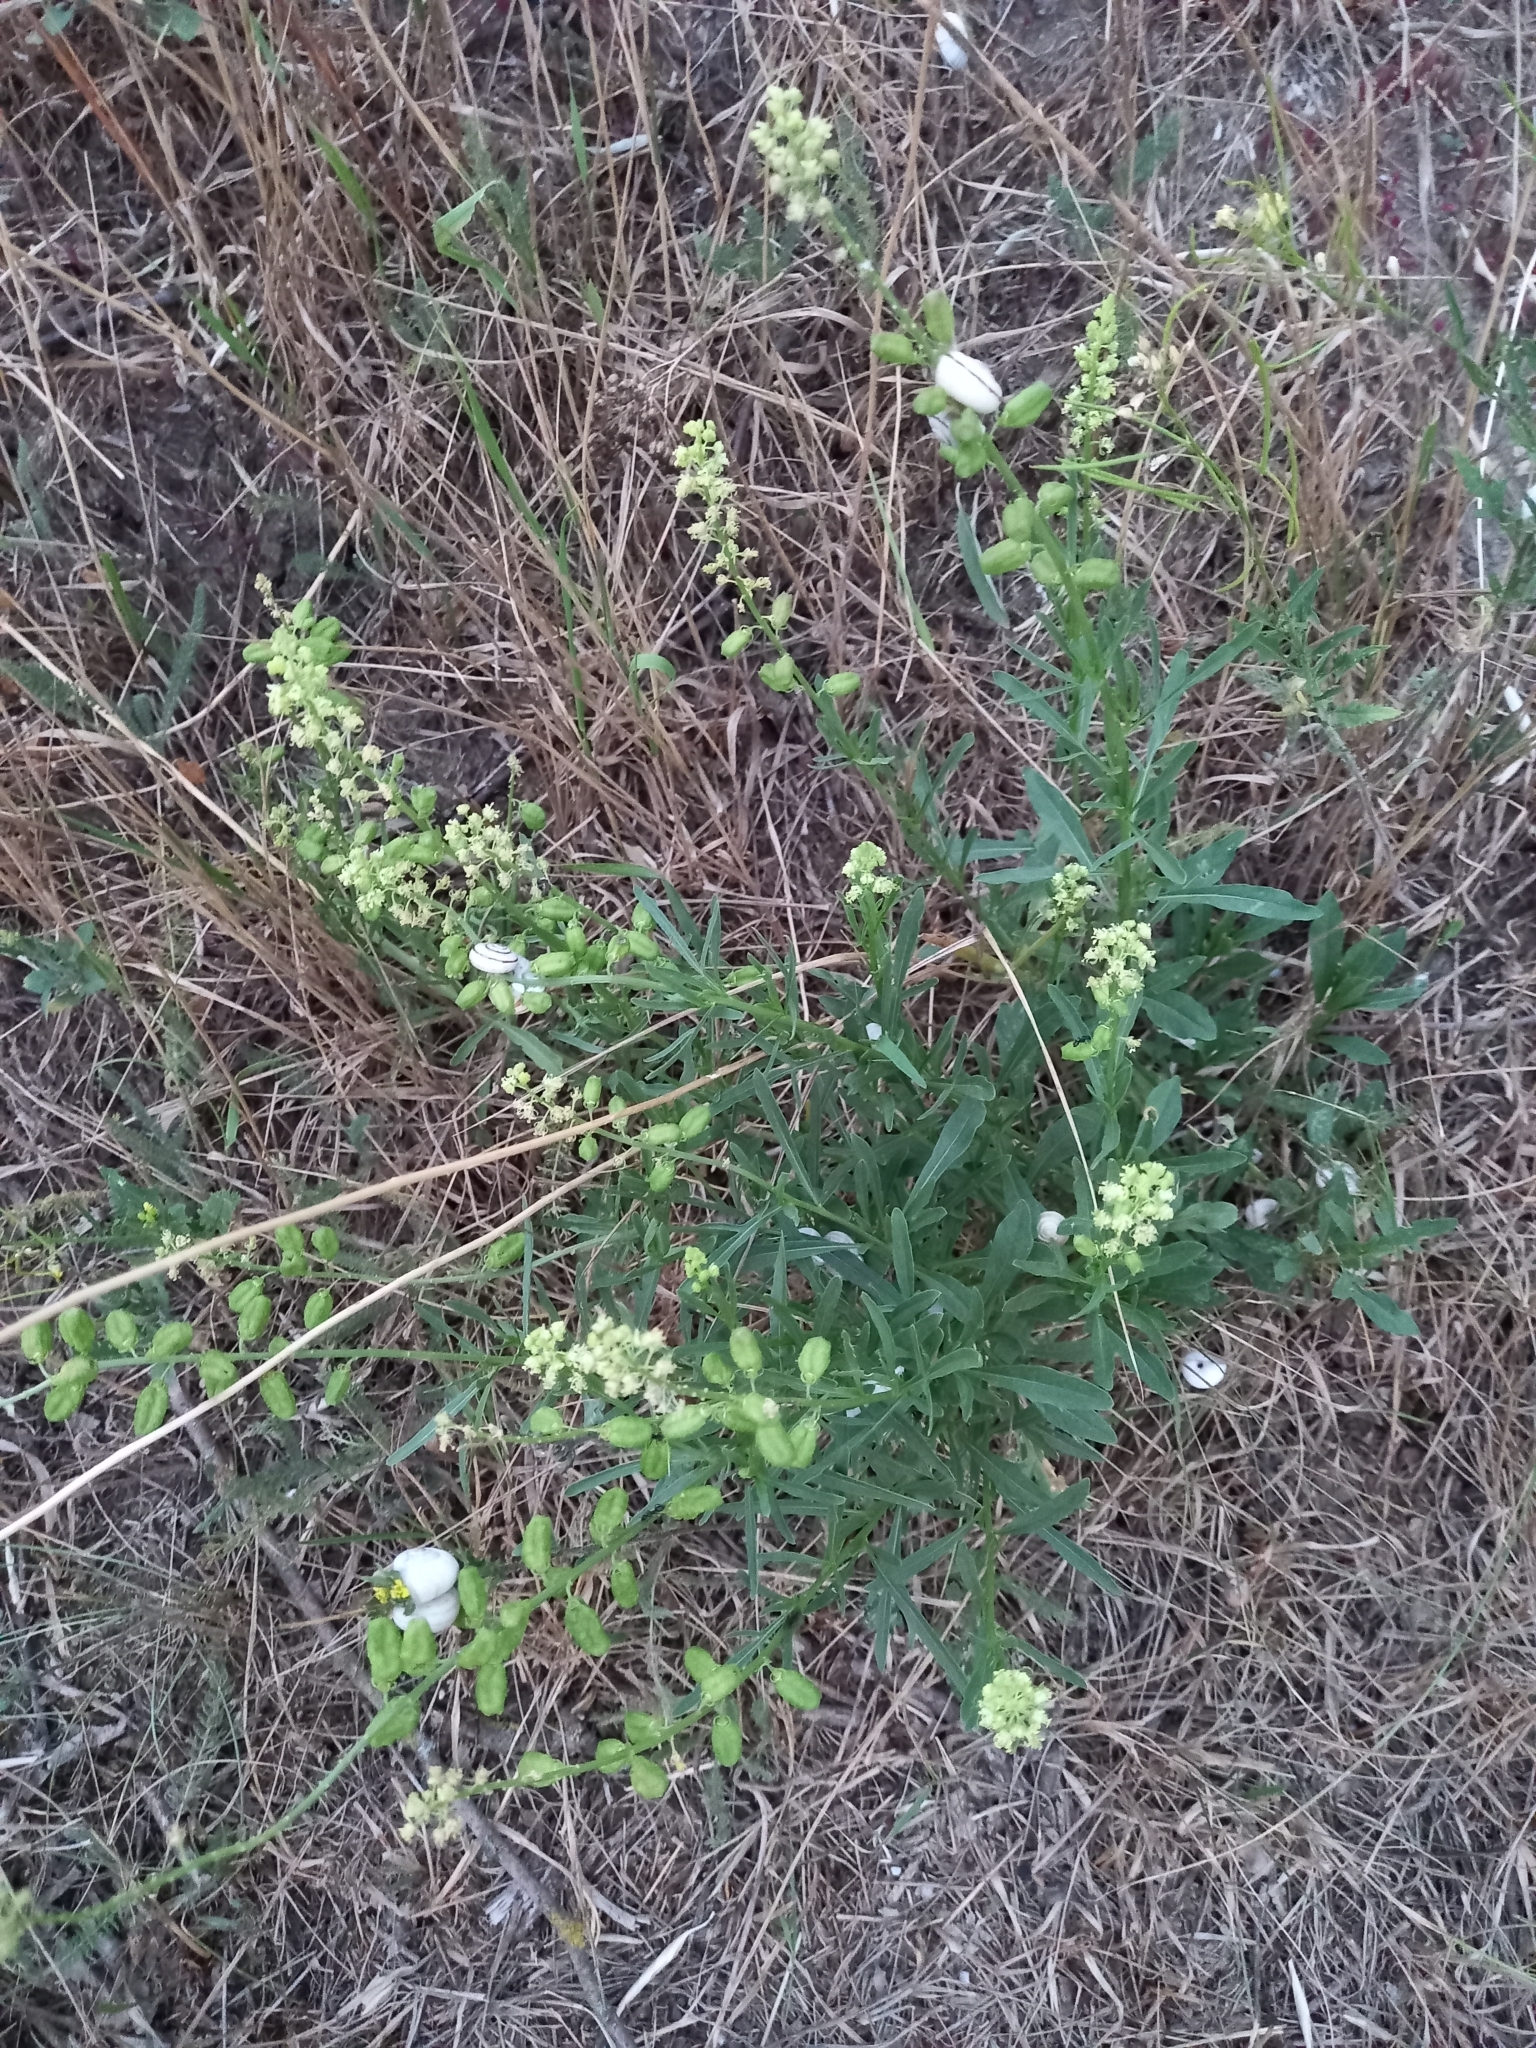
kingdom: Plantae
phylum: Tracheophyta
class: Magnoliopsida
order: Brassicales
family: Resedaceae
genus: Reseda
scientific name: Reseda lutea
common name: Wild mignonette
